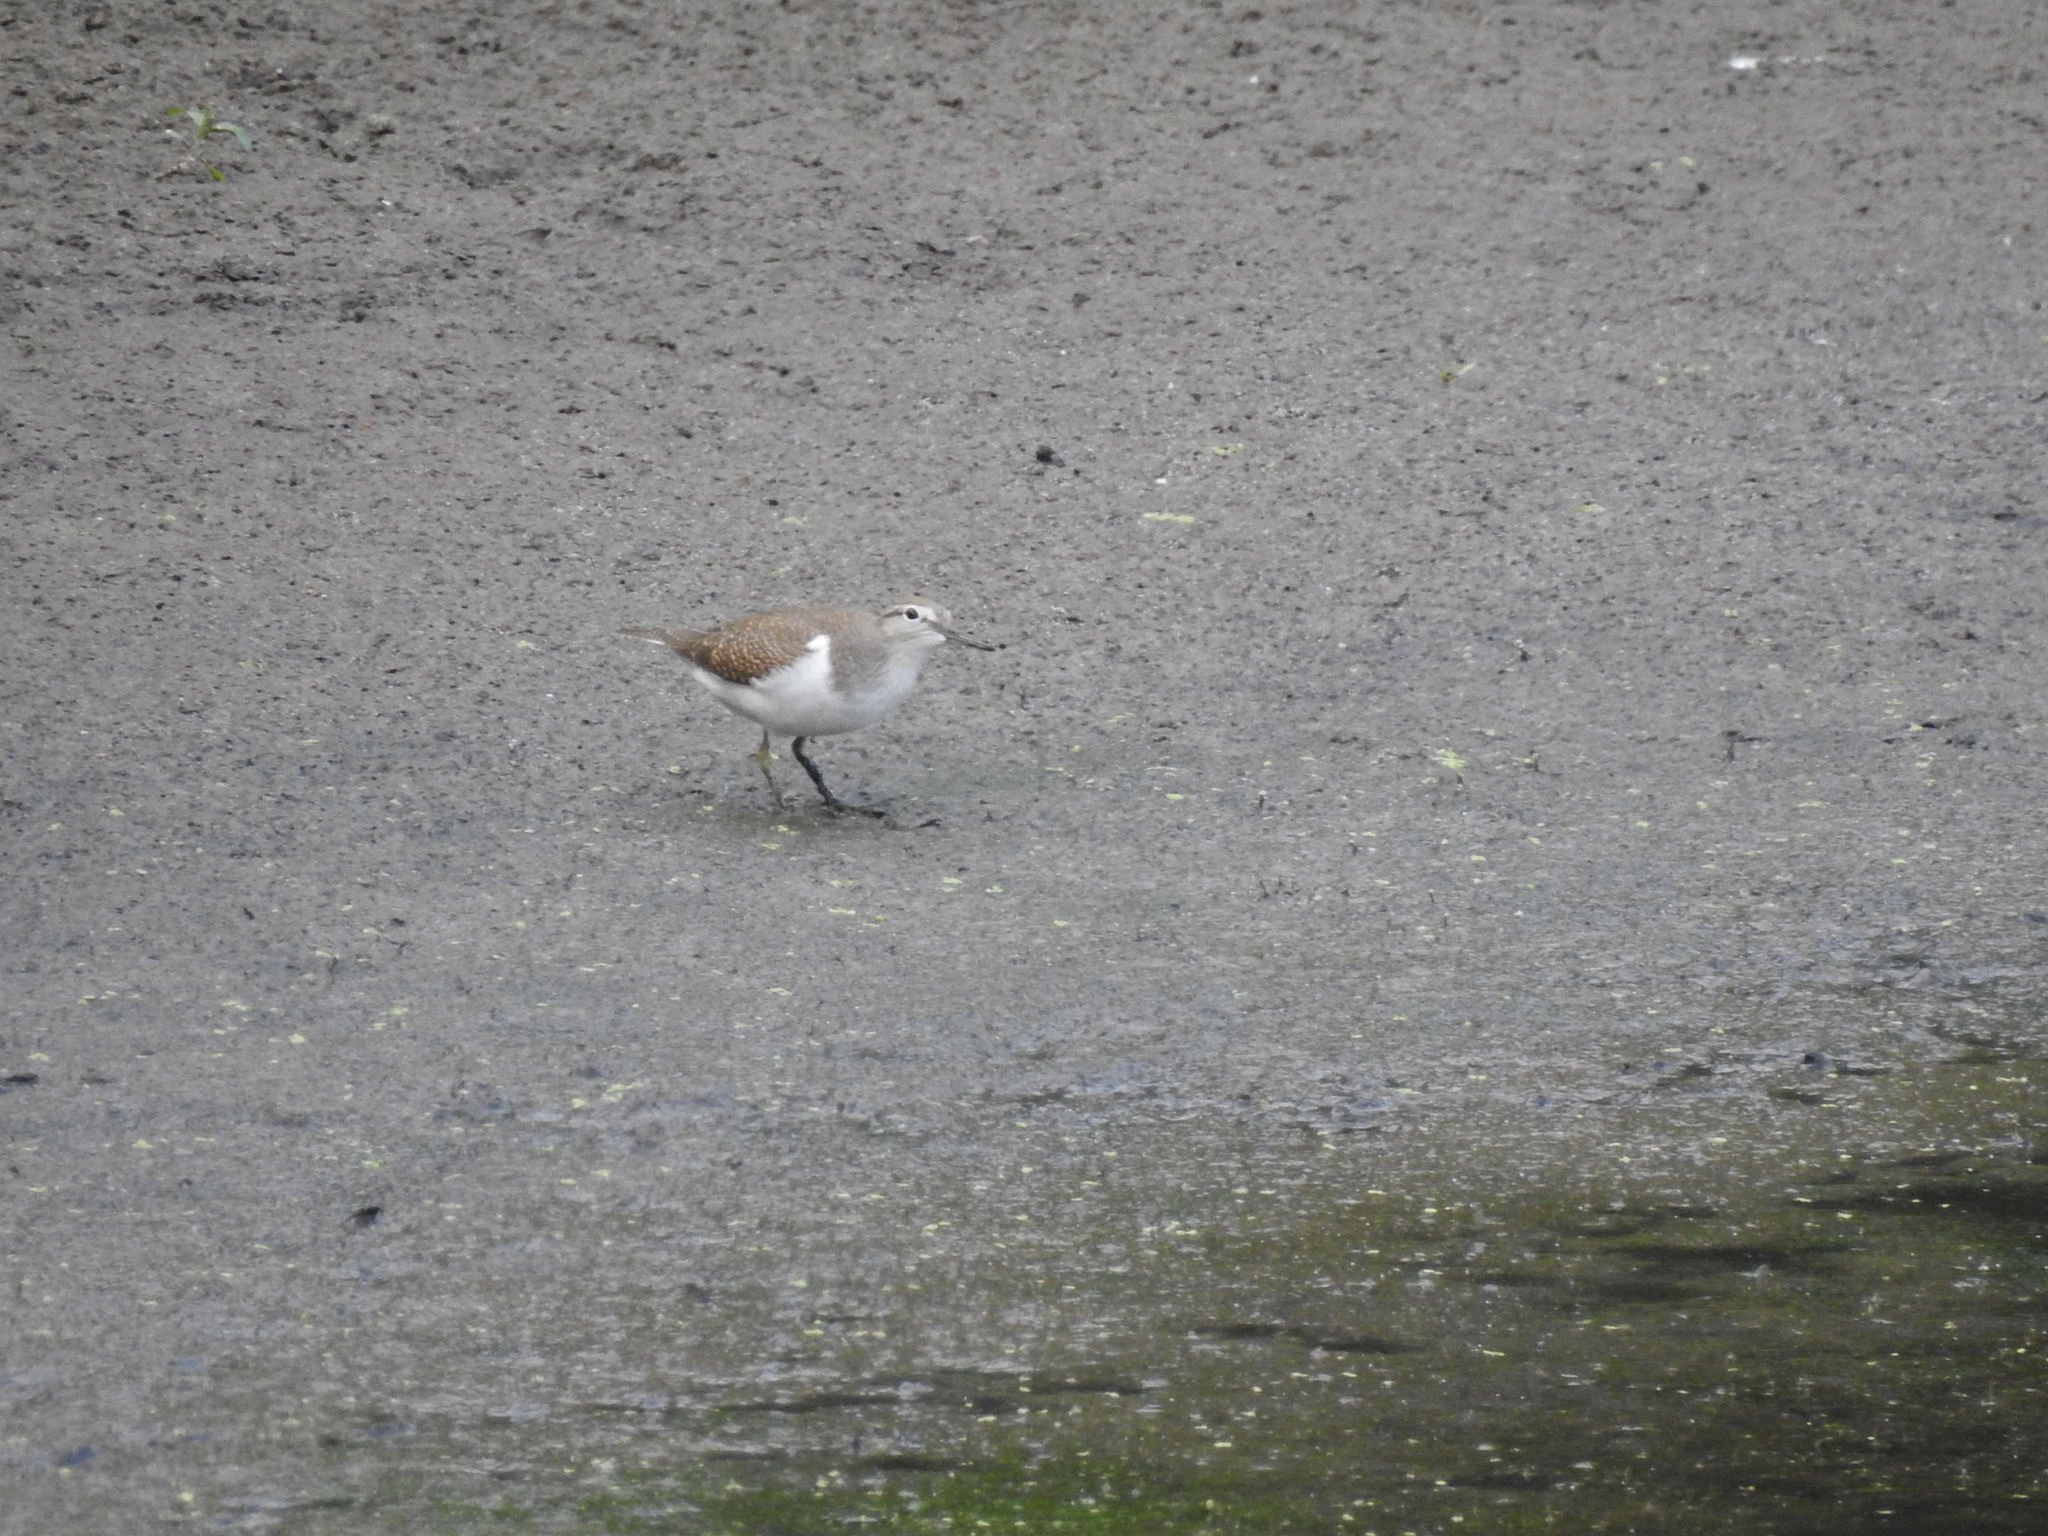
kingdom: Animalia
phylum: Chordata
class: Aves
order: Charadriiformes
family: Scolopacidae
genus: Actitis
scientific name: Actitis hypoleucos
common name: Common sandpiper
